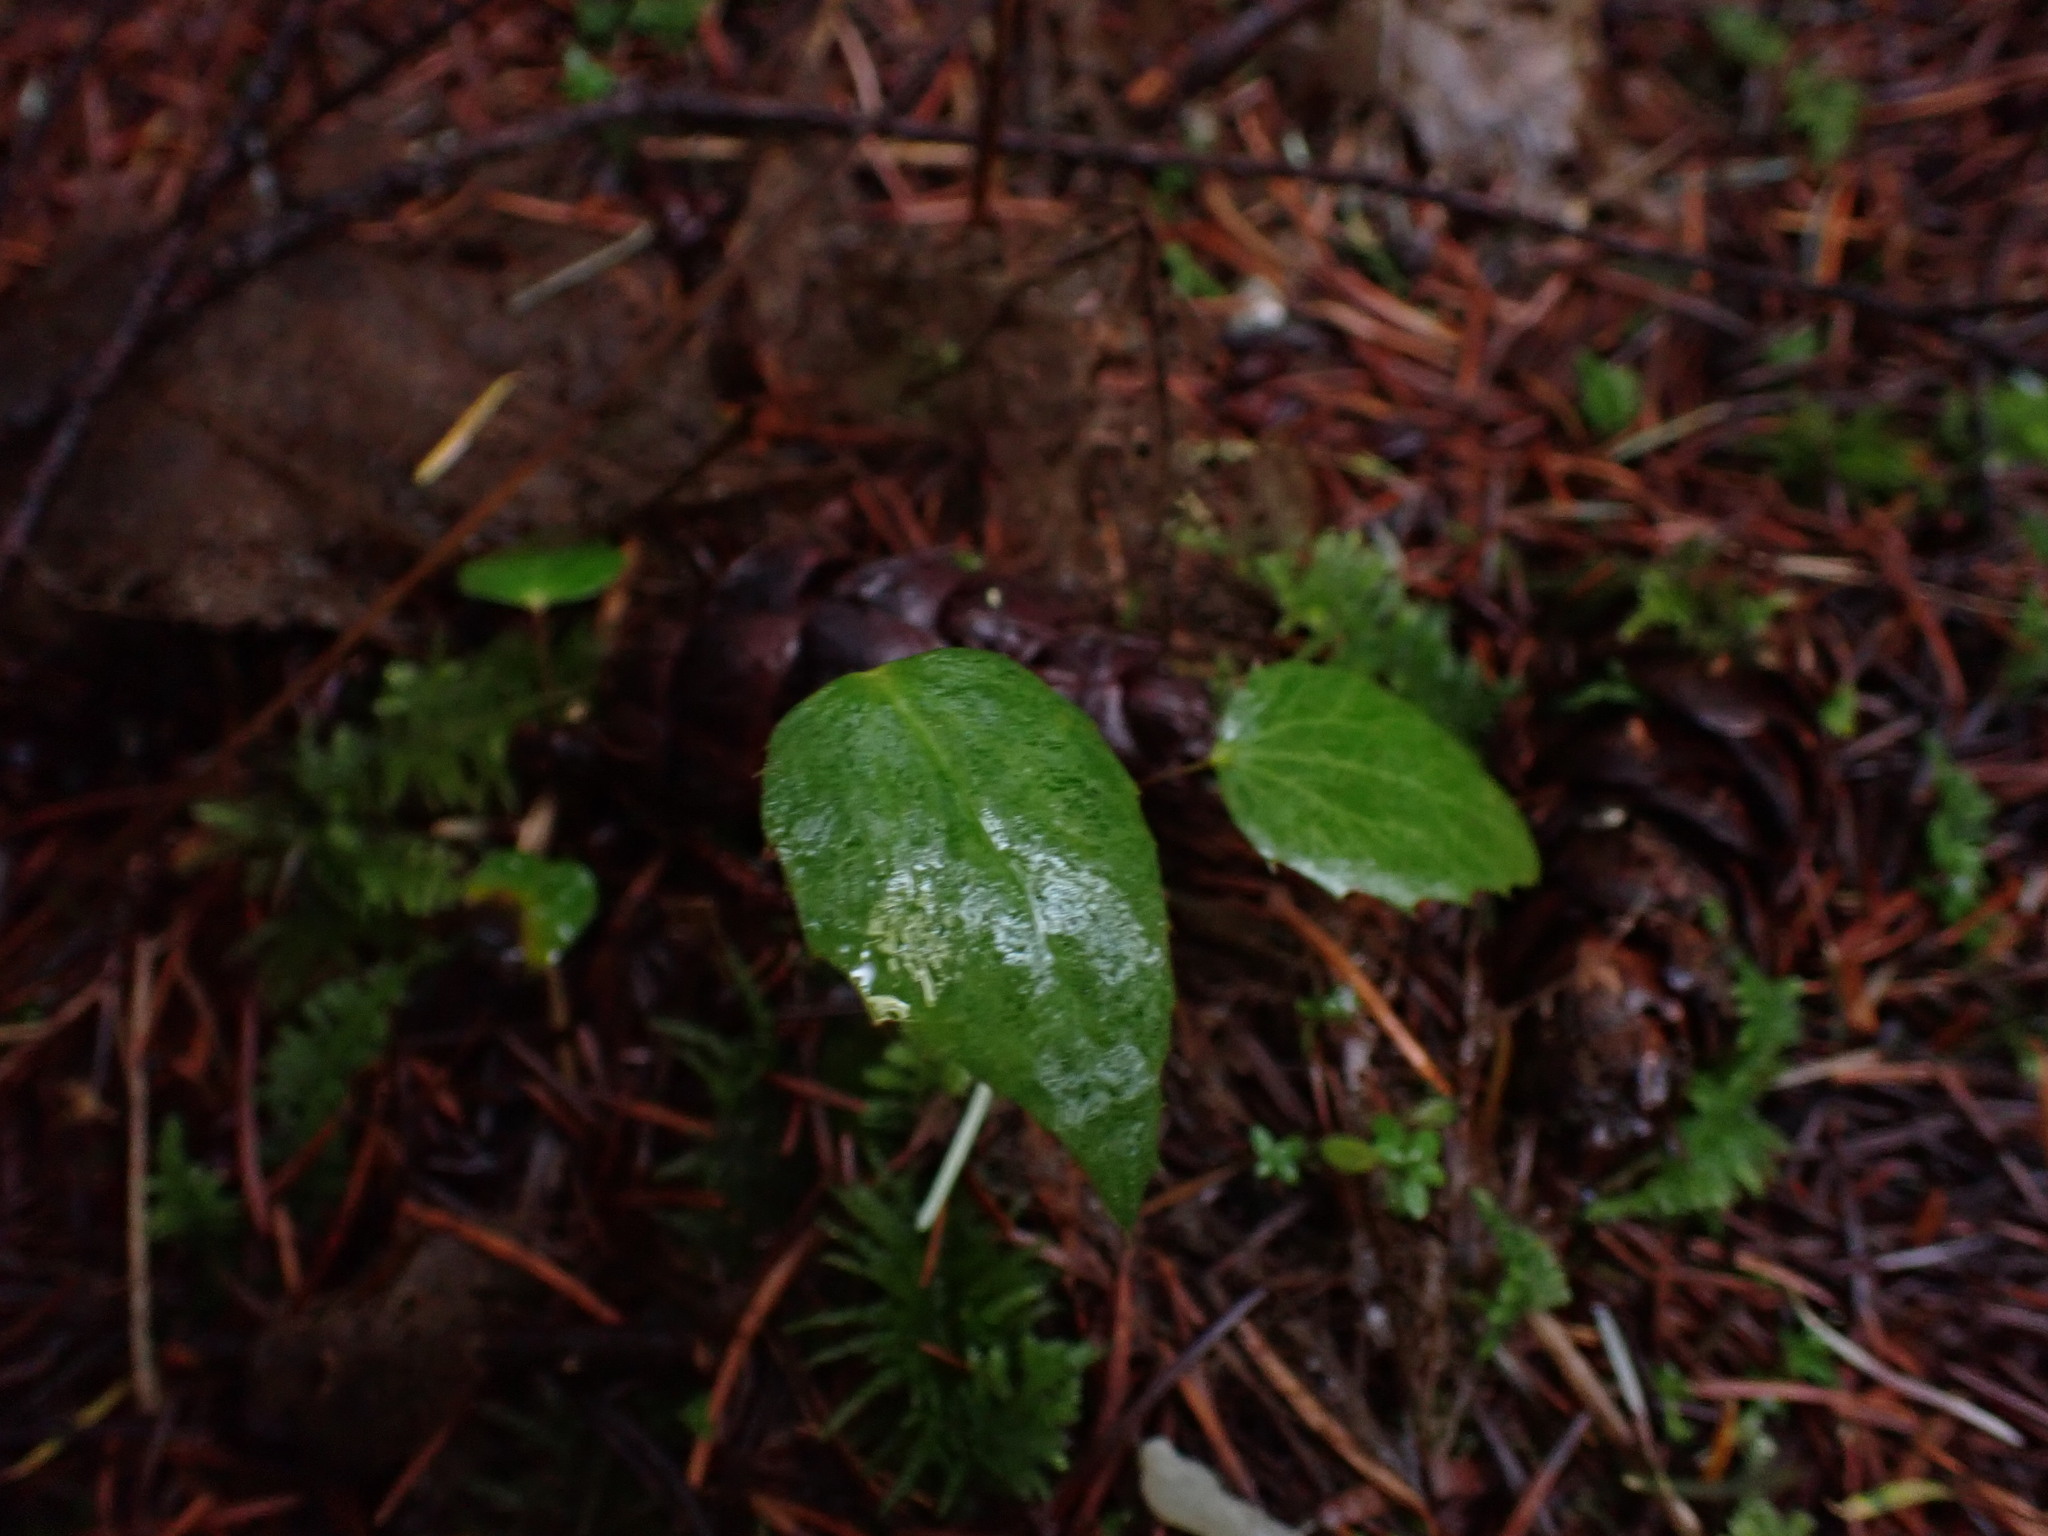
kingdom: Plantae
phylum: Tracheophyta
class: Magnoliopsida
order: Ranunculales
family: Berberidaceae
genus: Mahonia
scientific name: Mahonia nervosa
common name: Cascade oregon-grape
